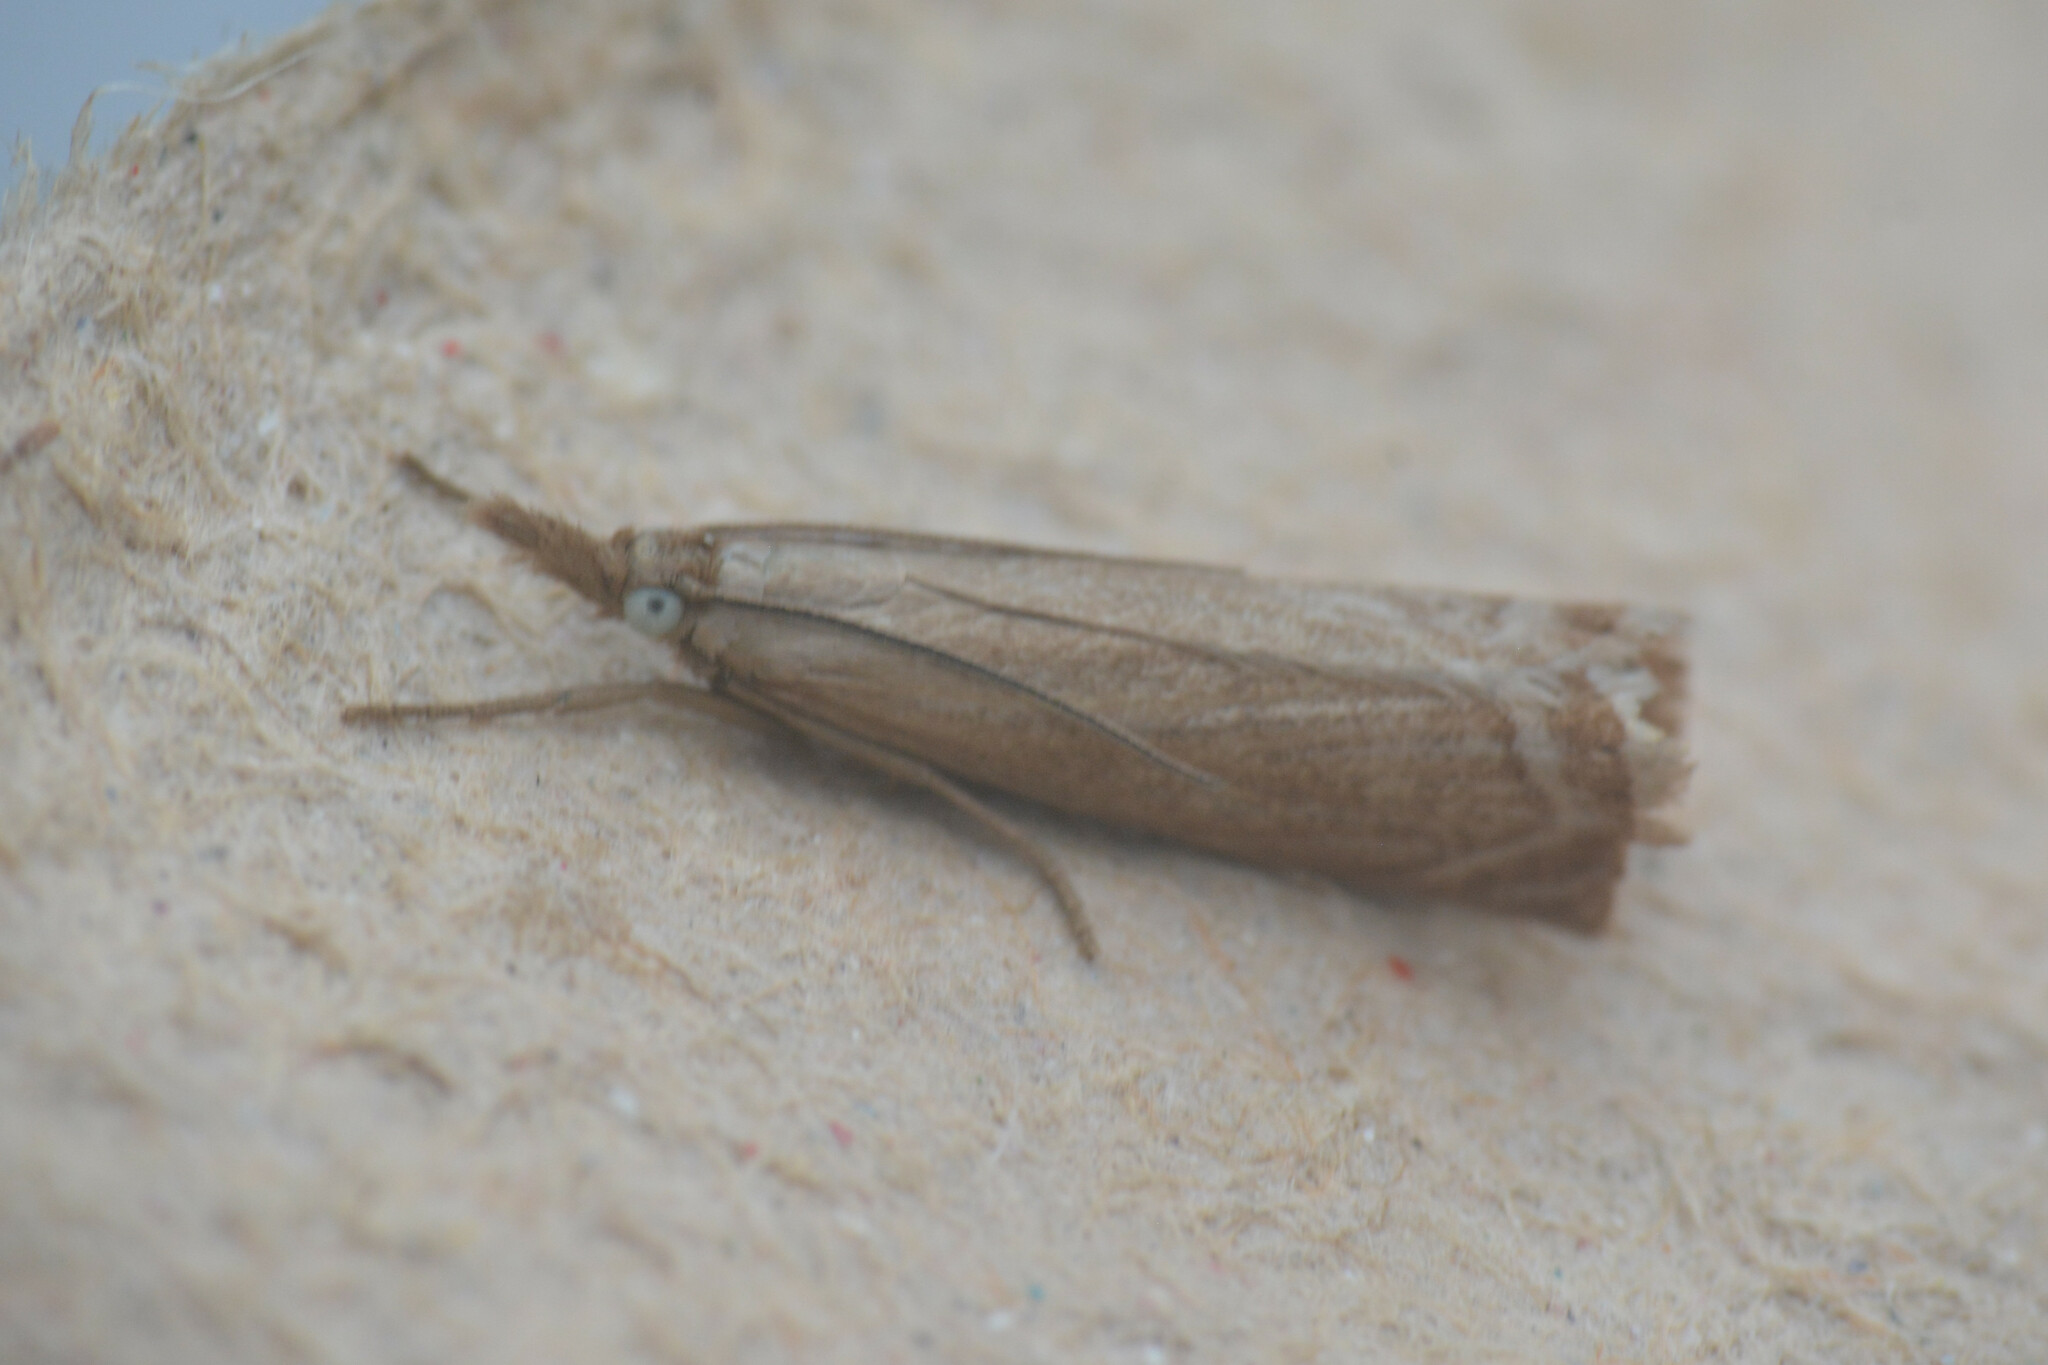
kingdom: Animalia
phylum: Arthropoda
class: Insecta
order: Lepidoptera
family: Crambidae
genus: Chrysoteuchia
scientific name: Chrysoteuchia culmella
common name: Garden grass-veneer
